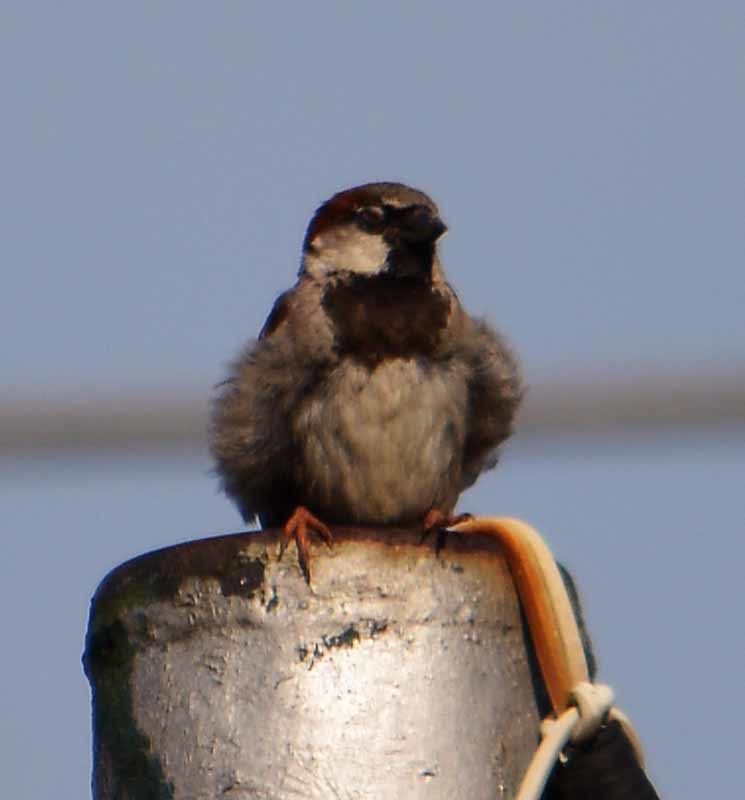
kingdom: Animalia
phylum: Chordata
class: Aves
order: Passeriformes
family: Passeridae
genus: Passer
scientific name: Passer domesticus
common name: House sparrow
